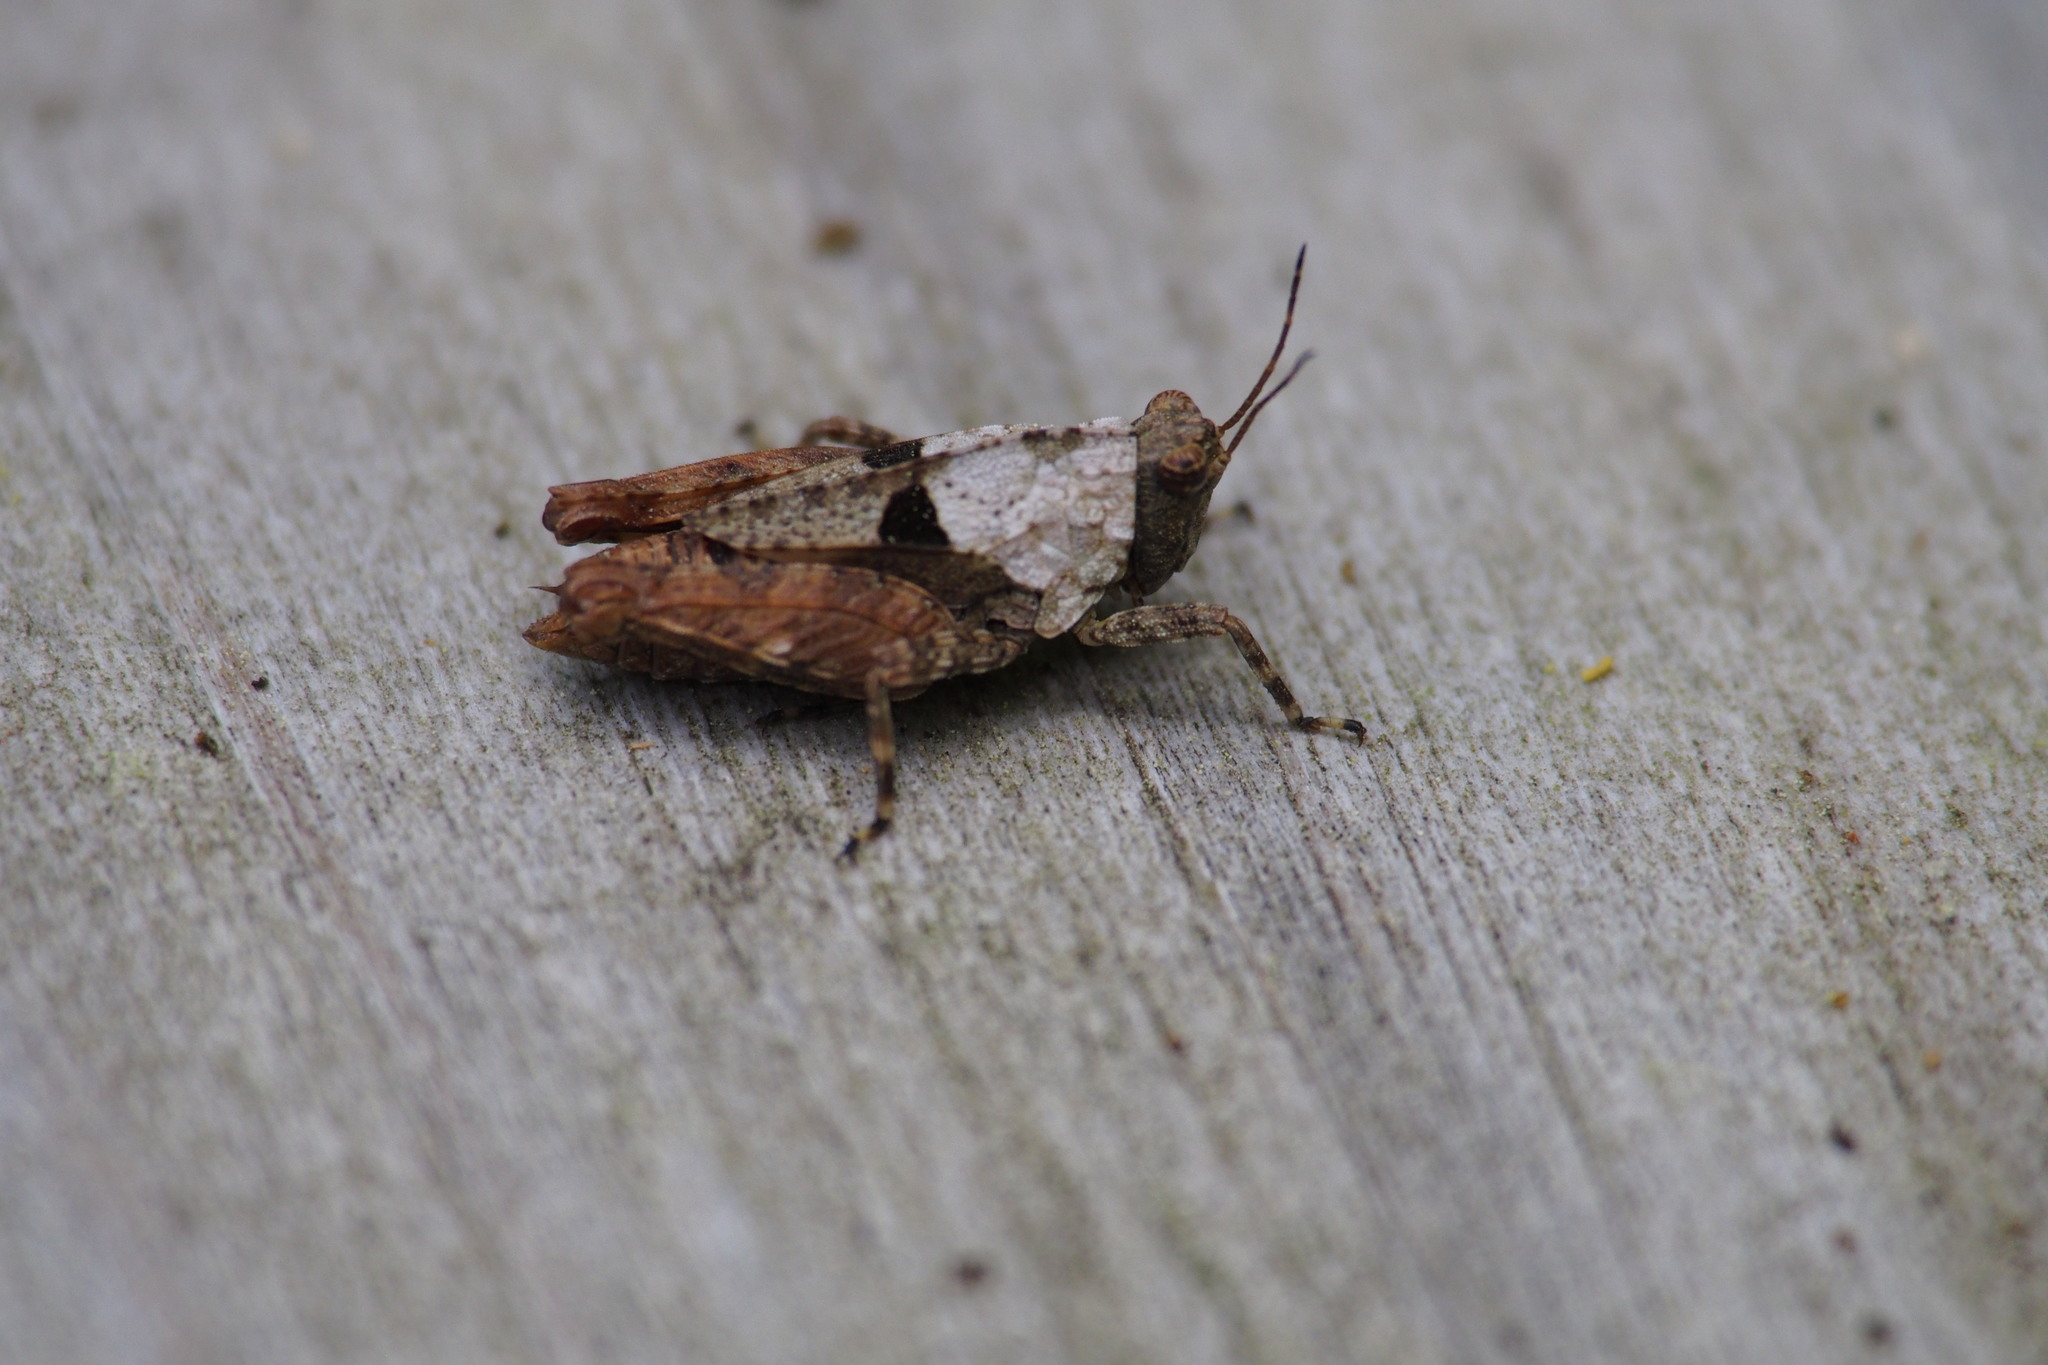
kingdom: Animalia
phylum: Arthropoda
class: Insecta
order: Orthoptera
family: Tetrigidae
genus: Tetrix
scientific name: Tetrix japonica
